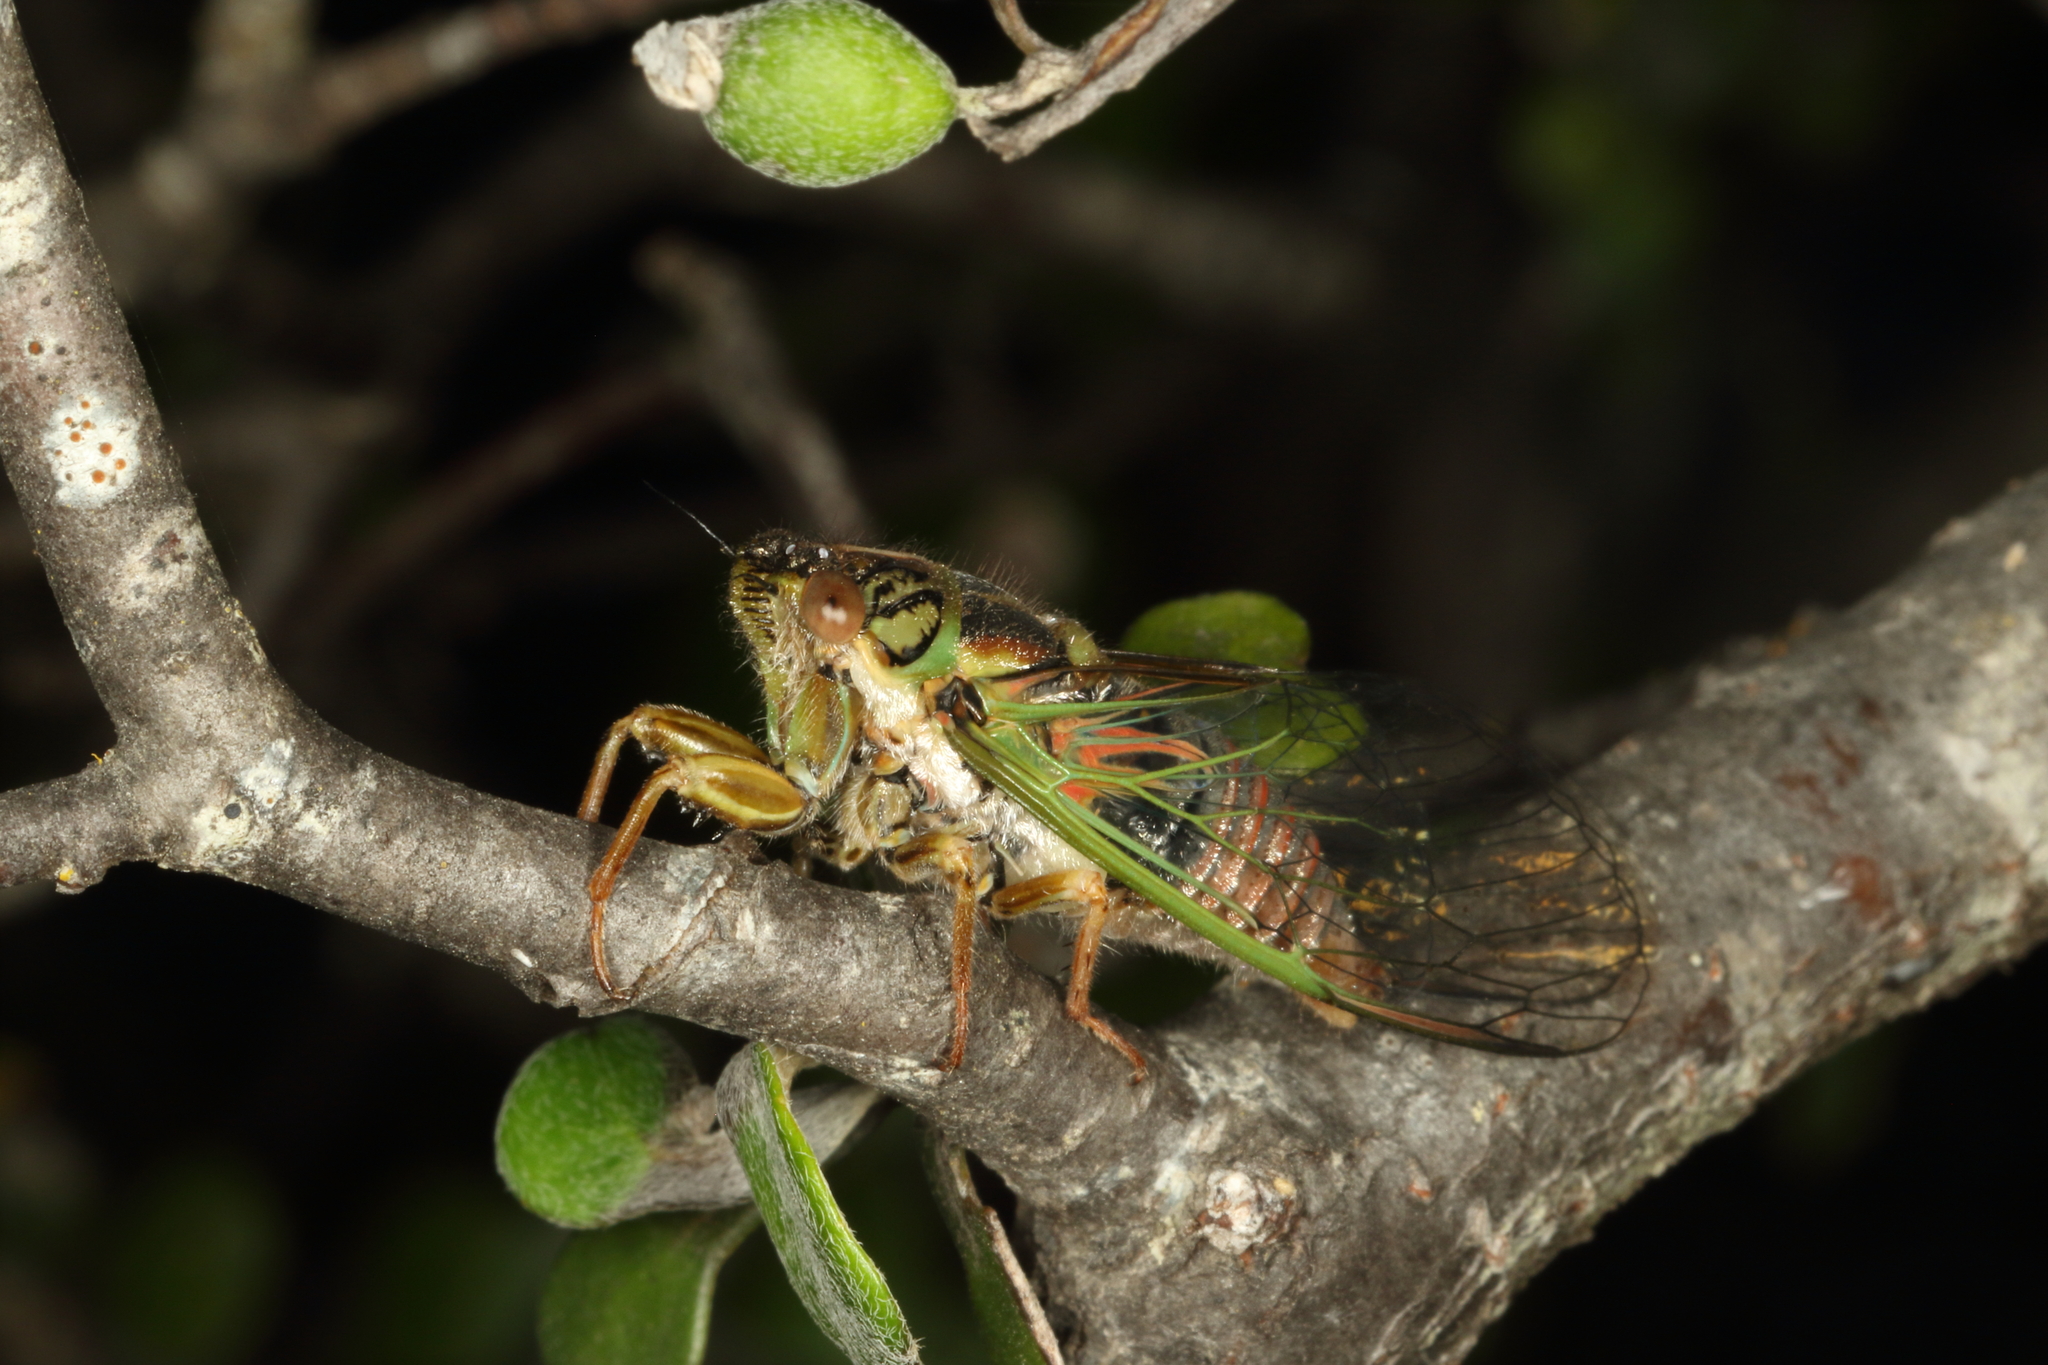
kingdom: Animalia
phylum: Arthropoda
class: Insecta
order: Hemiptera
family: Cicadidae
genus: Rhodopsalta
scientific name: Rhodopsalta cruentata
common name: Blood redtail cicada
